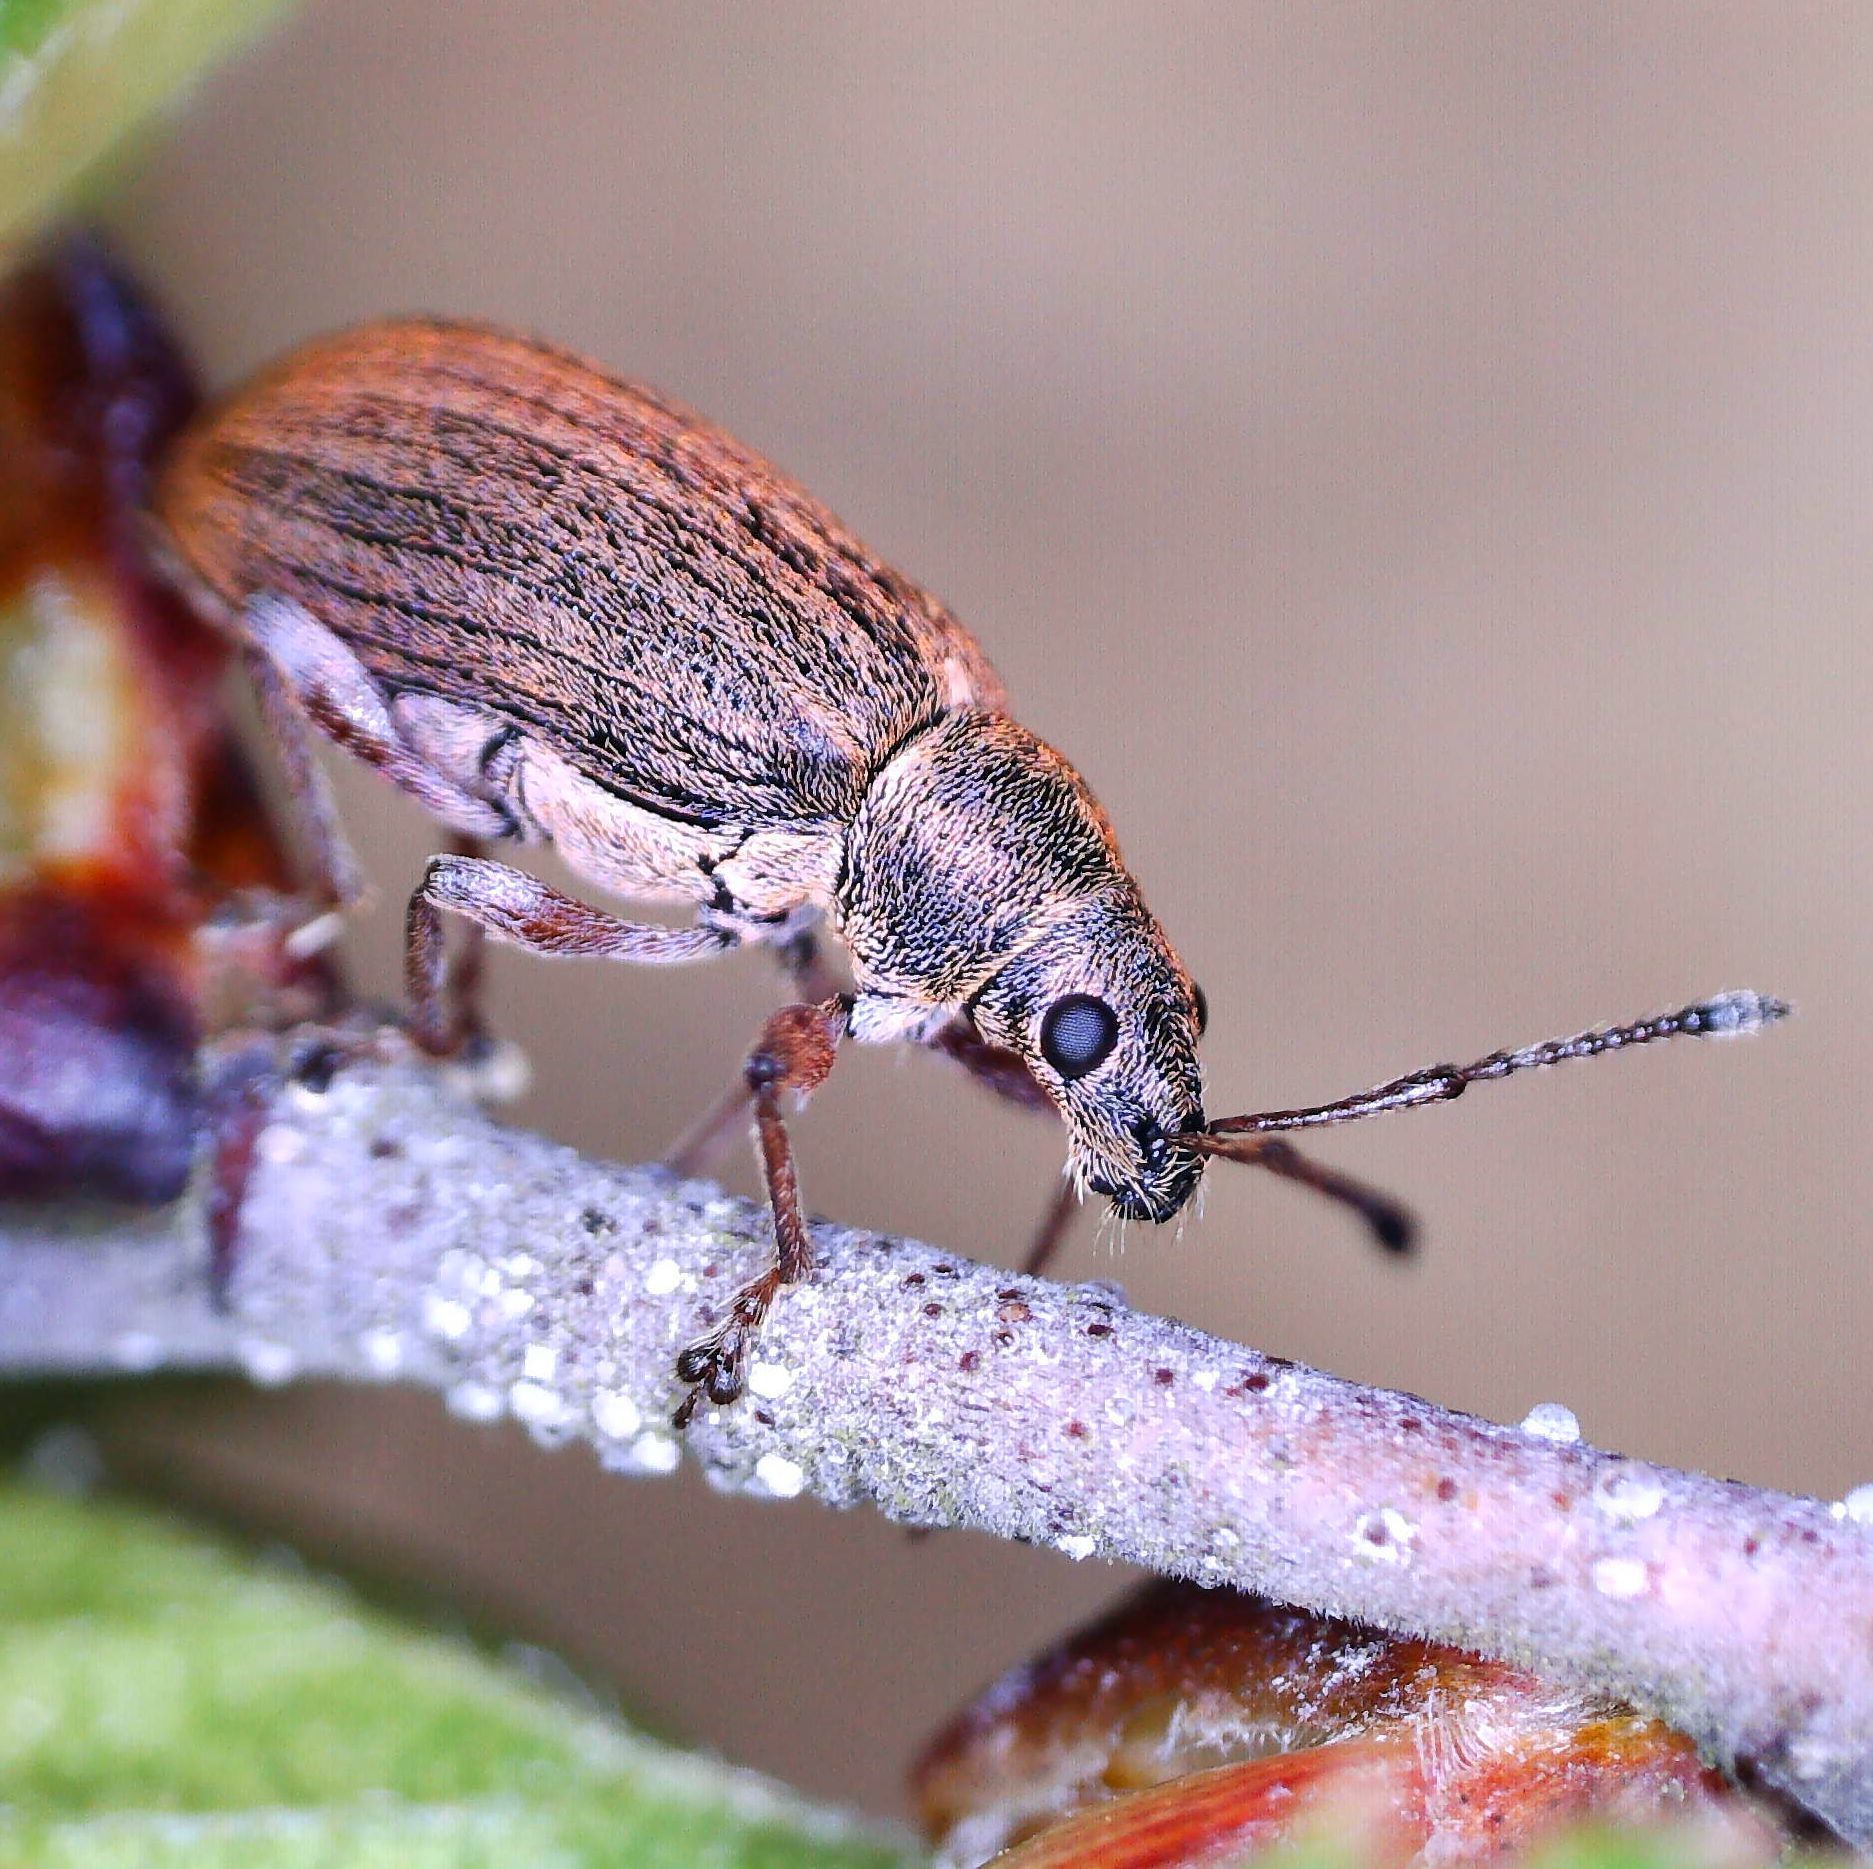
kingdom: Animalia
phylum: Arthropoda
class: Insecta
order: Coleoptera
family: Curculionidae
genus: Phyllobius
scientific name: Phyllobius pyri
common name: Common leaf weevil
